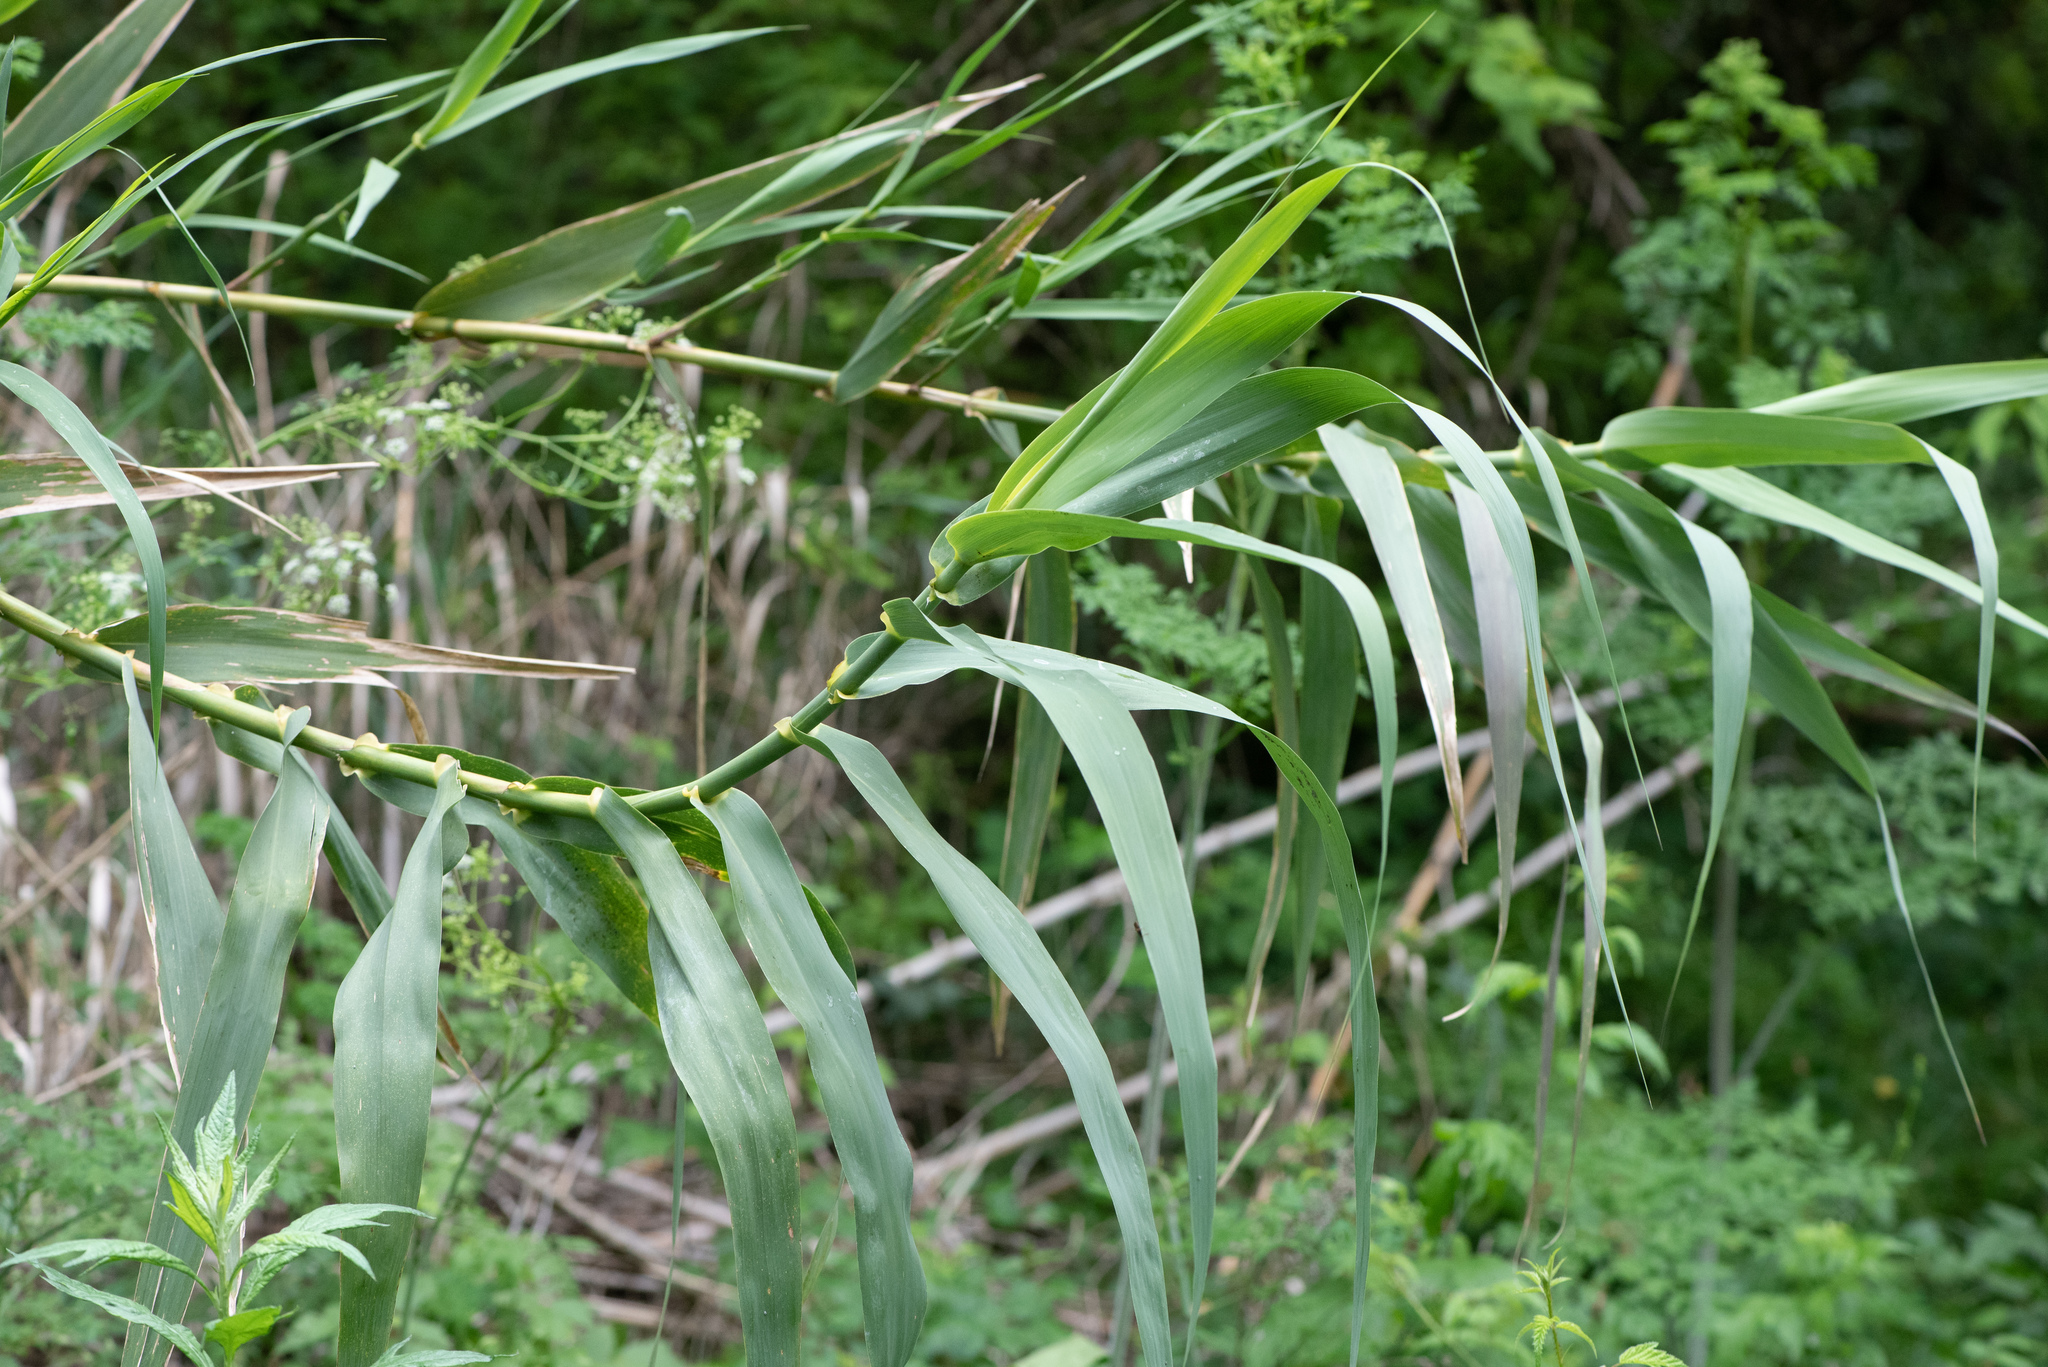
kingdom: Plantae
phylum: Tracheophyta
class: Liliopsida
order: Poales
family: Poaceae
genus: Arundo
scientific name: Arundo donax
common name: Giant reed
